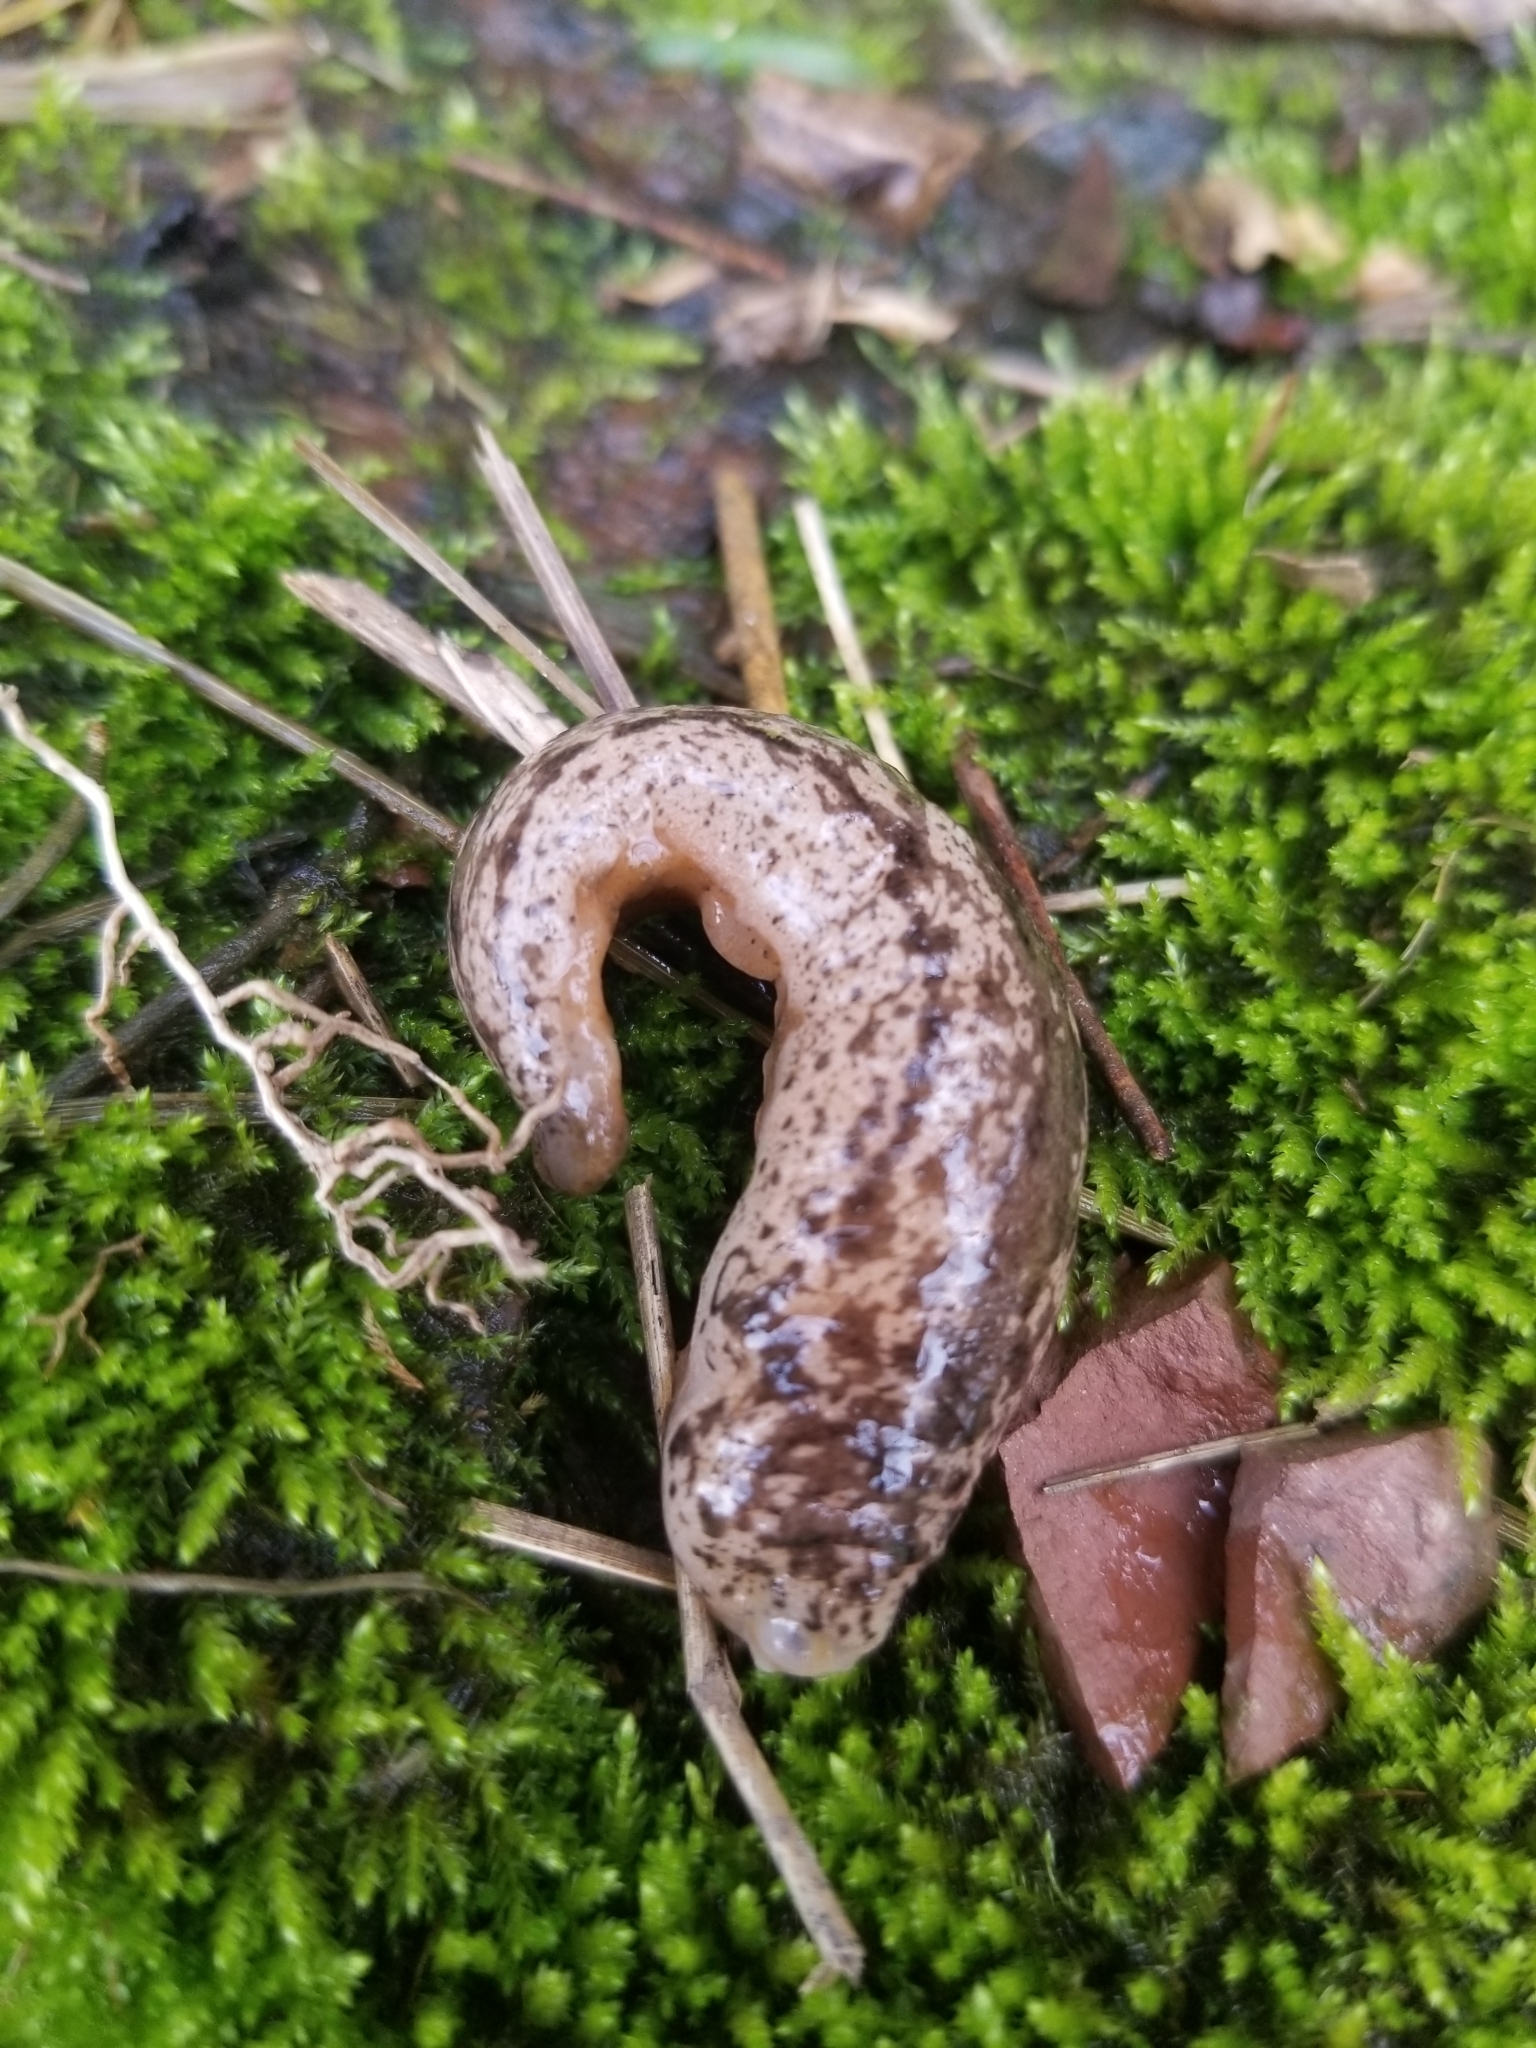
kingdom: Animalia
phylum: Mollusca
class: Gastropoda
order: Stylommatophora
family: Philomycidae
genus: Philomycus
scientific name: Philomycus togatus
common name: Toga mantleslug
